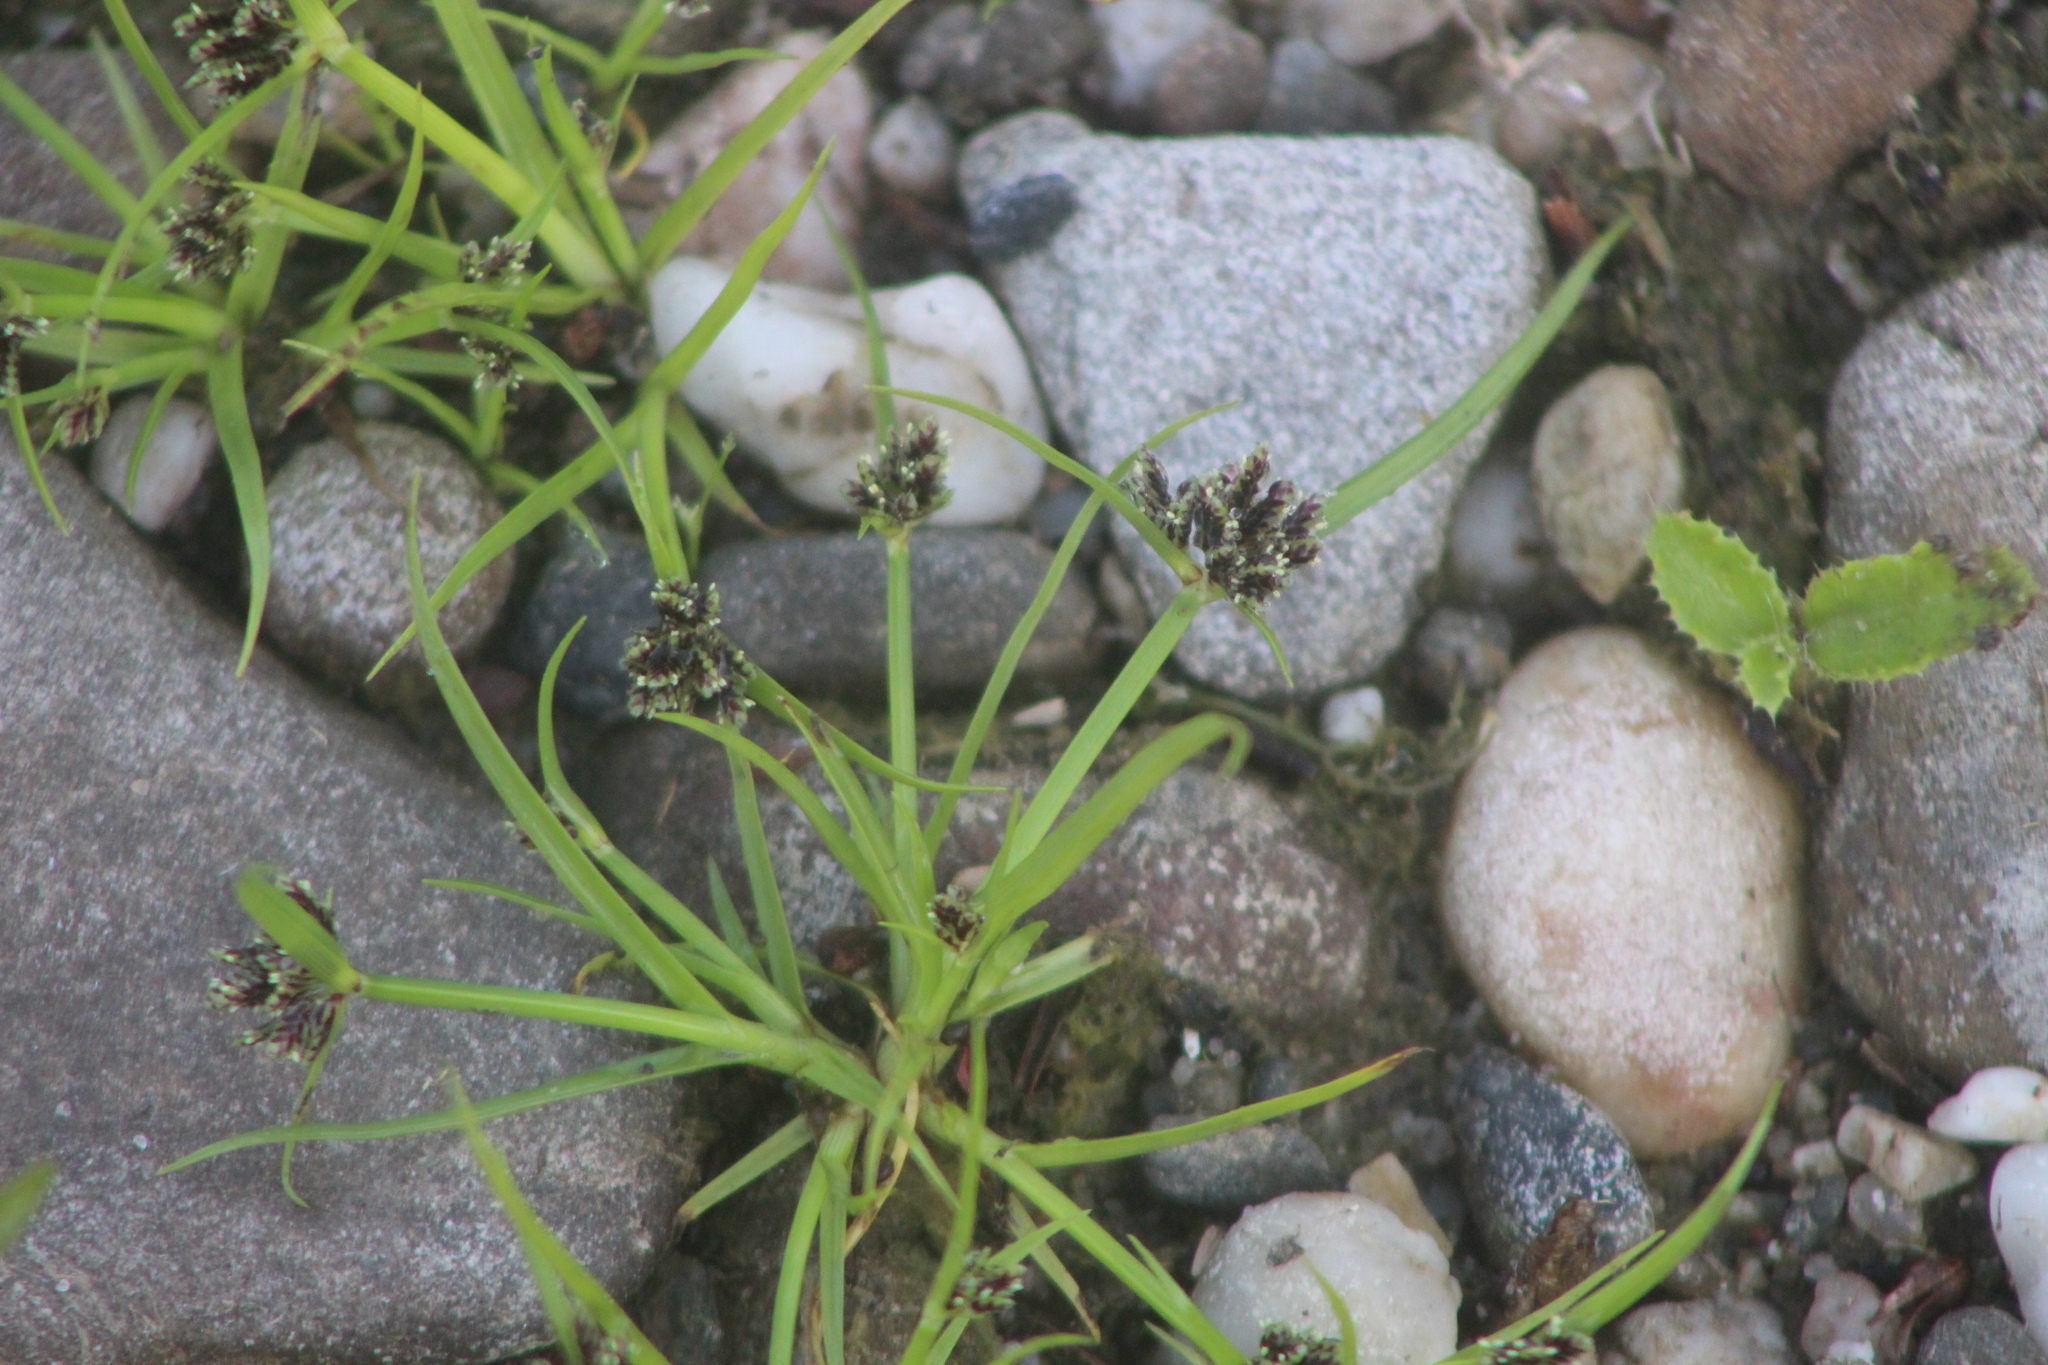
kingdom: Plantae
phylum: Tracheophyta
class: Liliopsida
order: Poales
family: Cyperaceae
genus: Cyperus
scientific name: Cyperus fuscus
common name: Brown galingale
